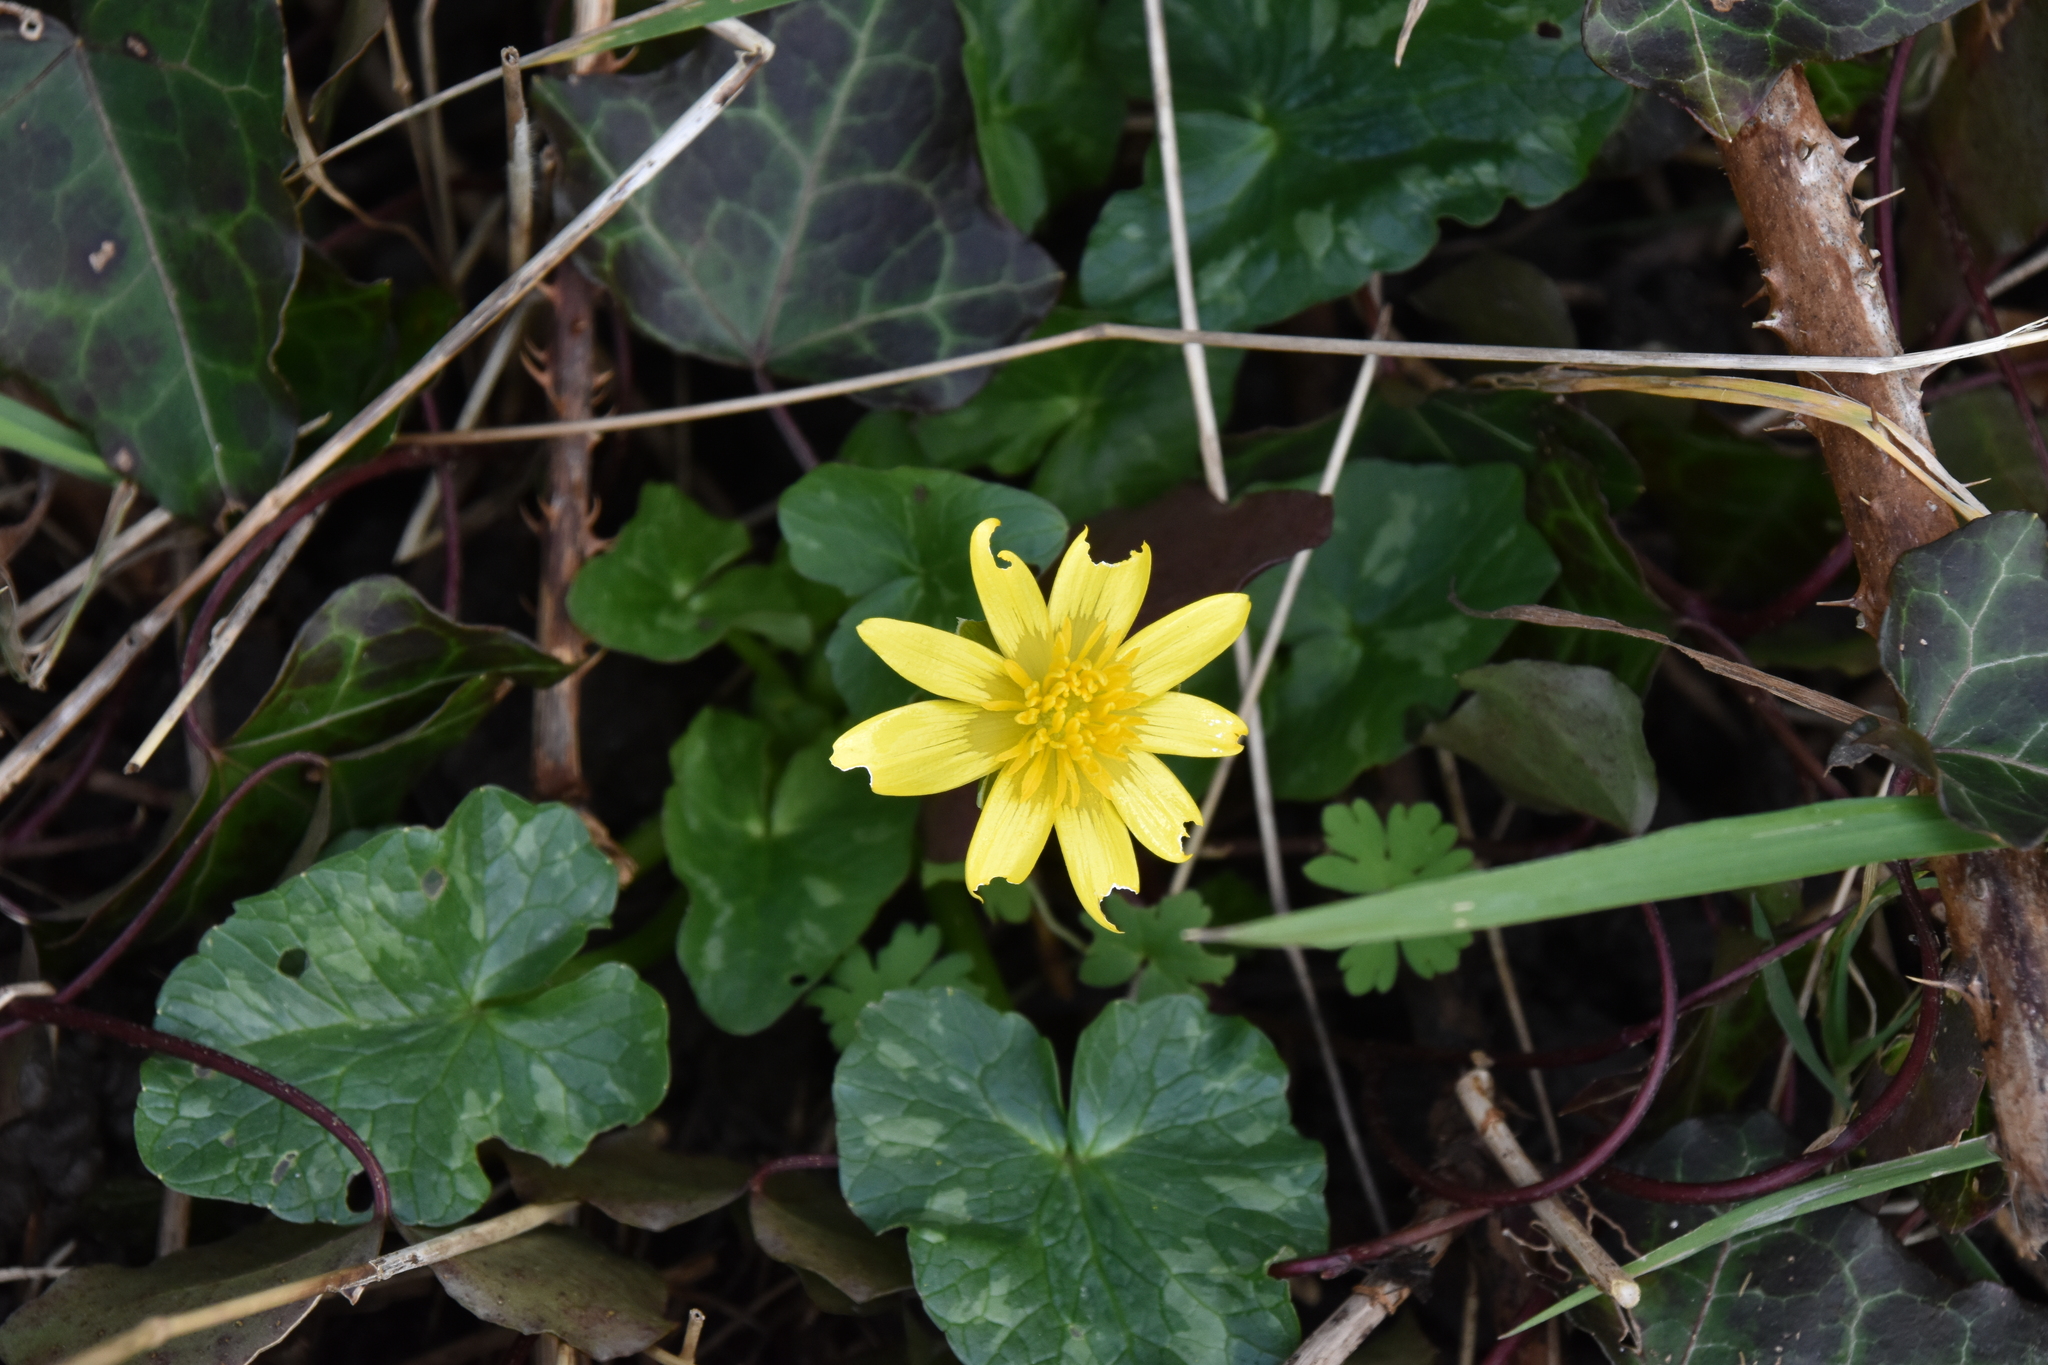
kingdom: Plantae
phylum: Tracheophyta
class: Magnoliopsida
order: Ranunculales
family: Ranunculaceae
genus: Ficaria
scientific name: Ficaria verna
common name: Lesser celandine
